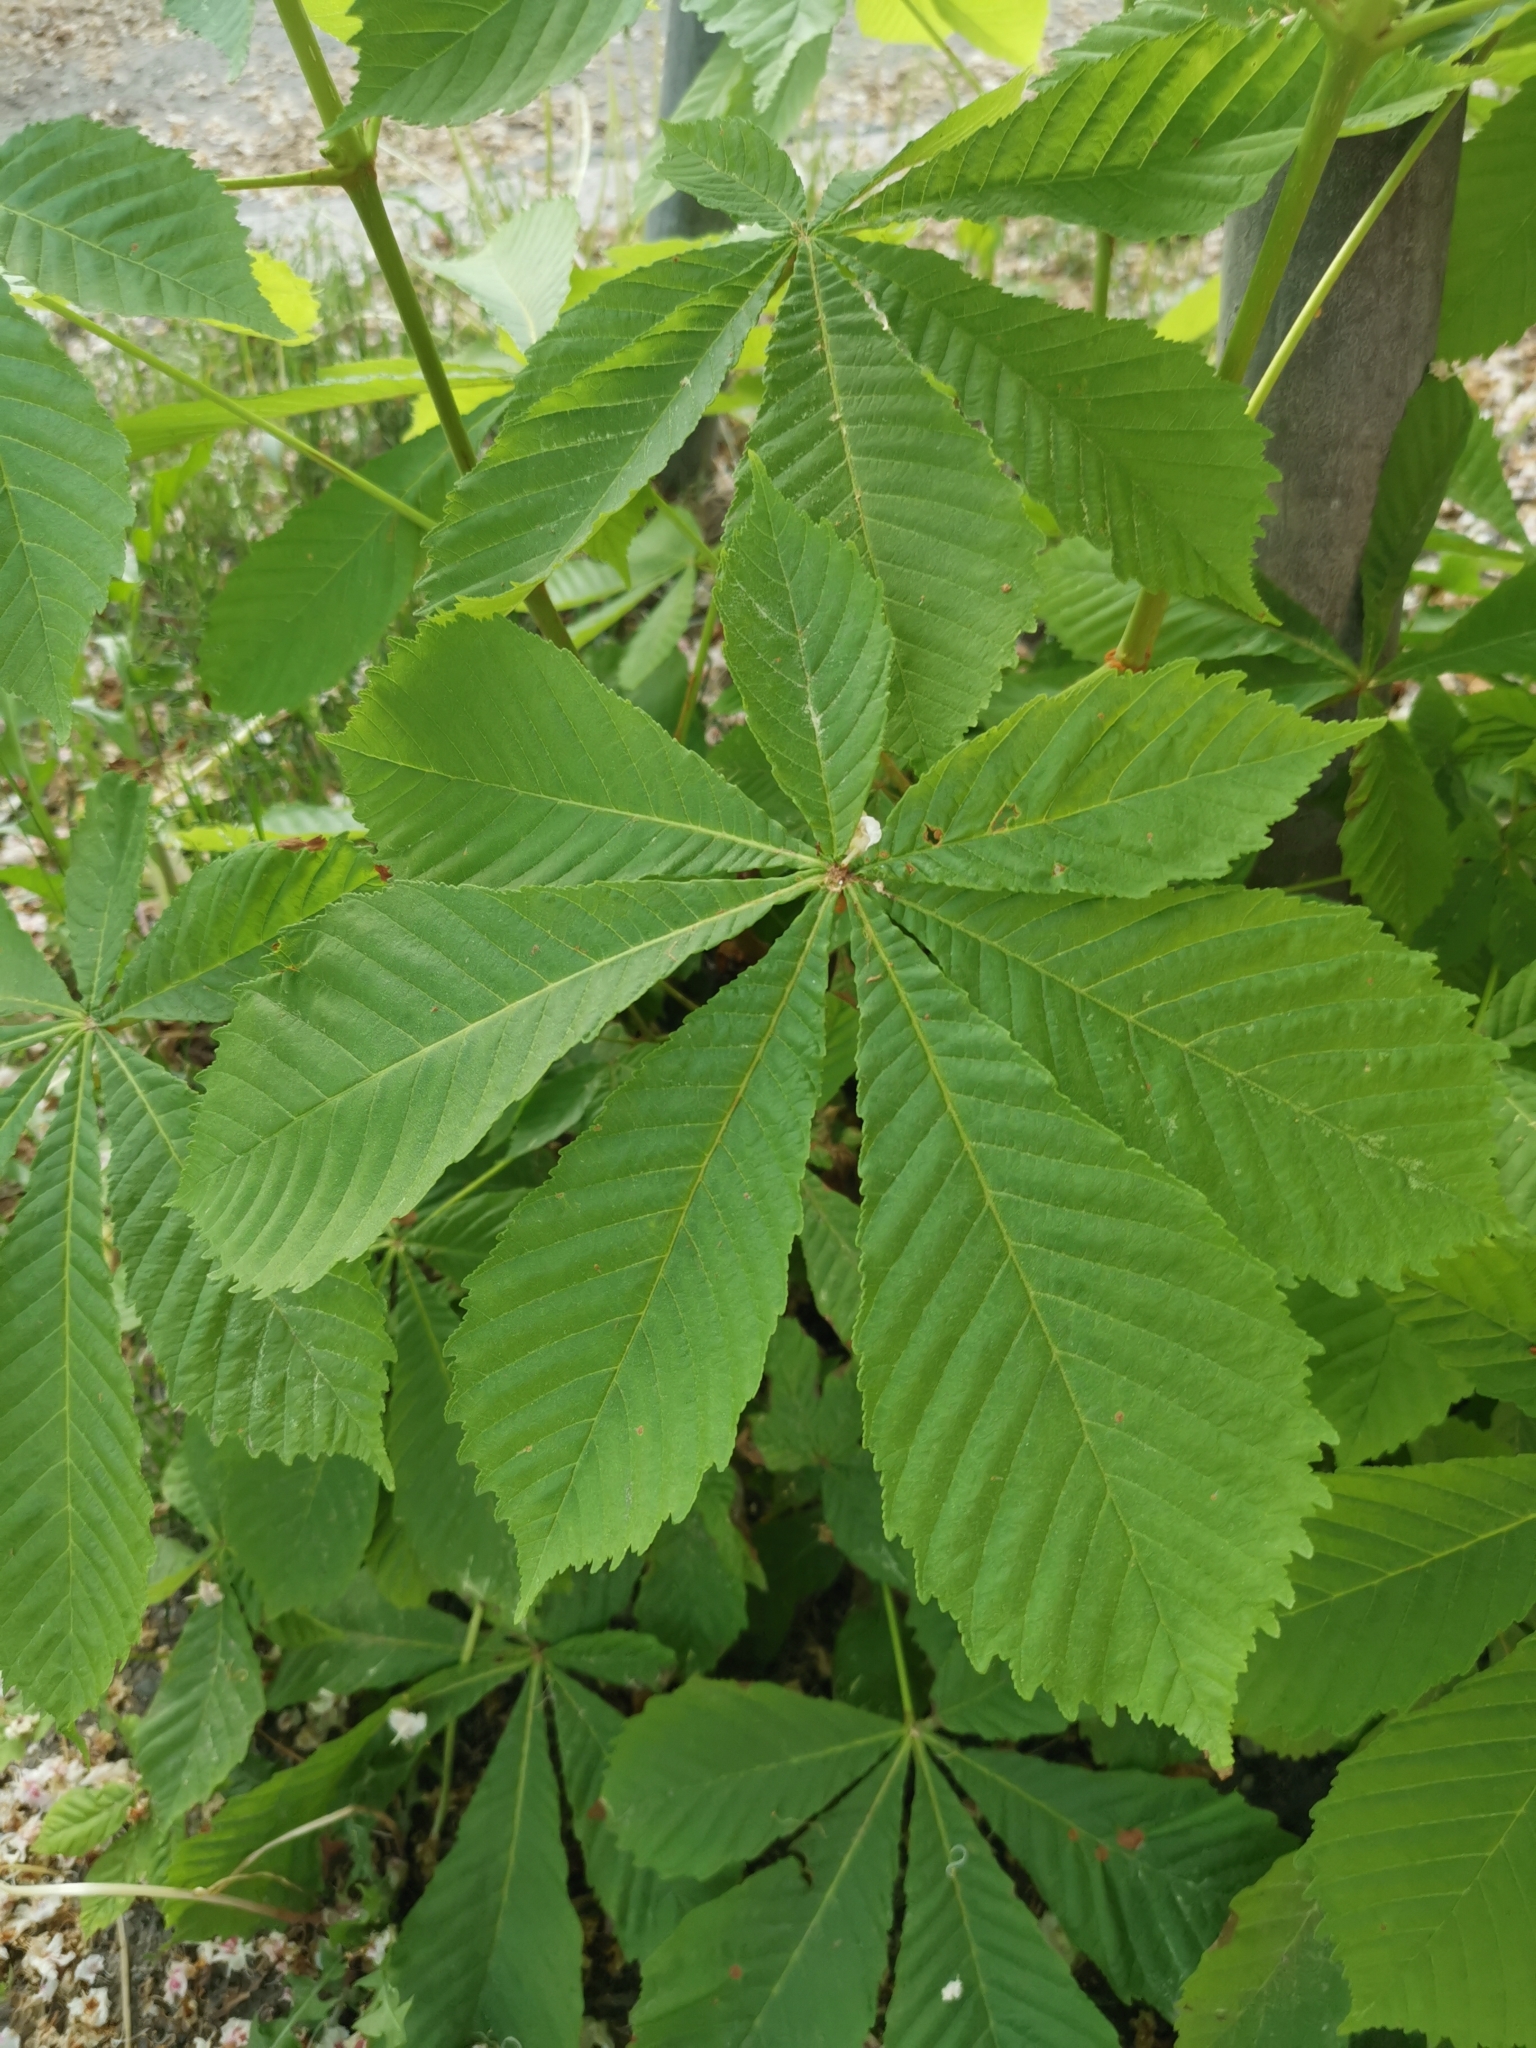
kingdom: Plantae
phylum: Tracheophyta
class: Magnoliopsida
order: Sapindales
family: Sapindaceae
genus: Aesculus
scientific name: Aesculus hippocastanum
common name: Horse-chestnut
